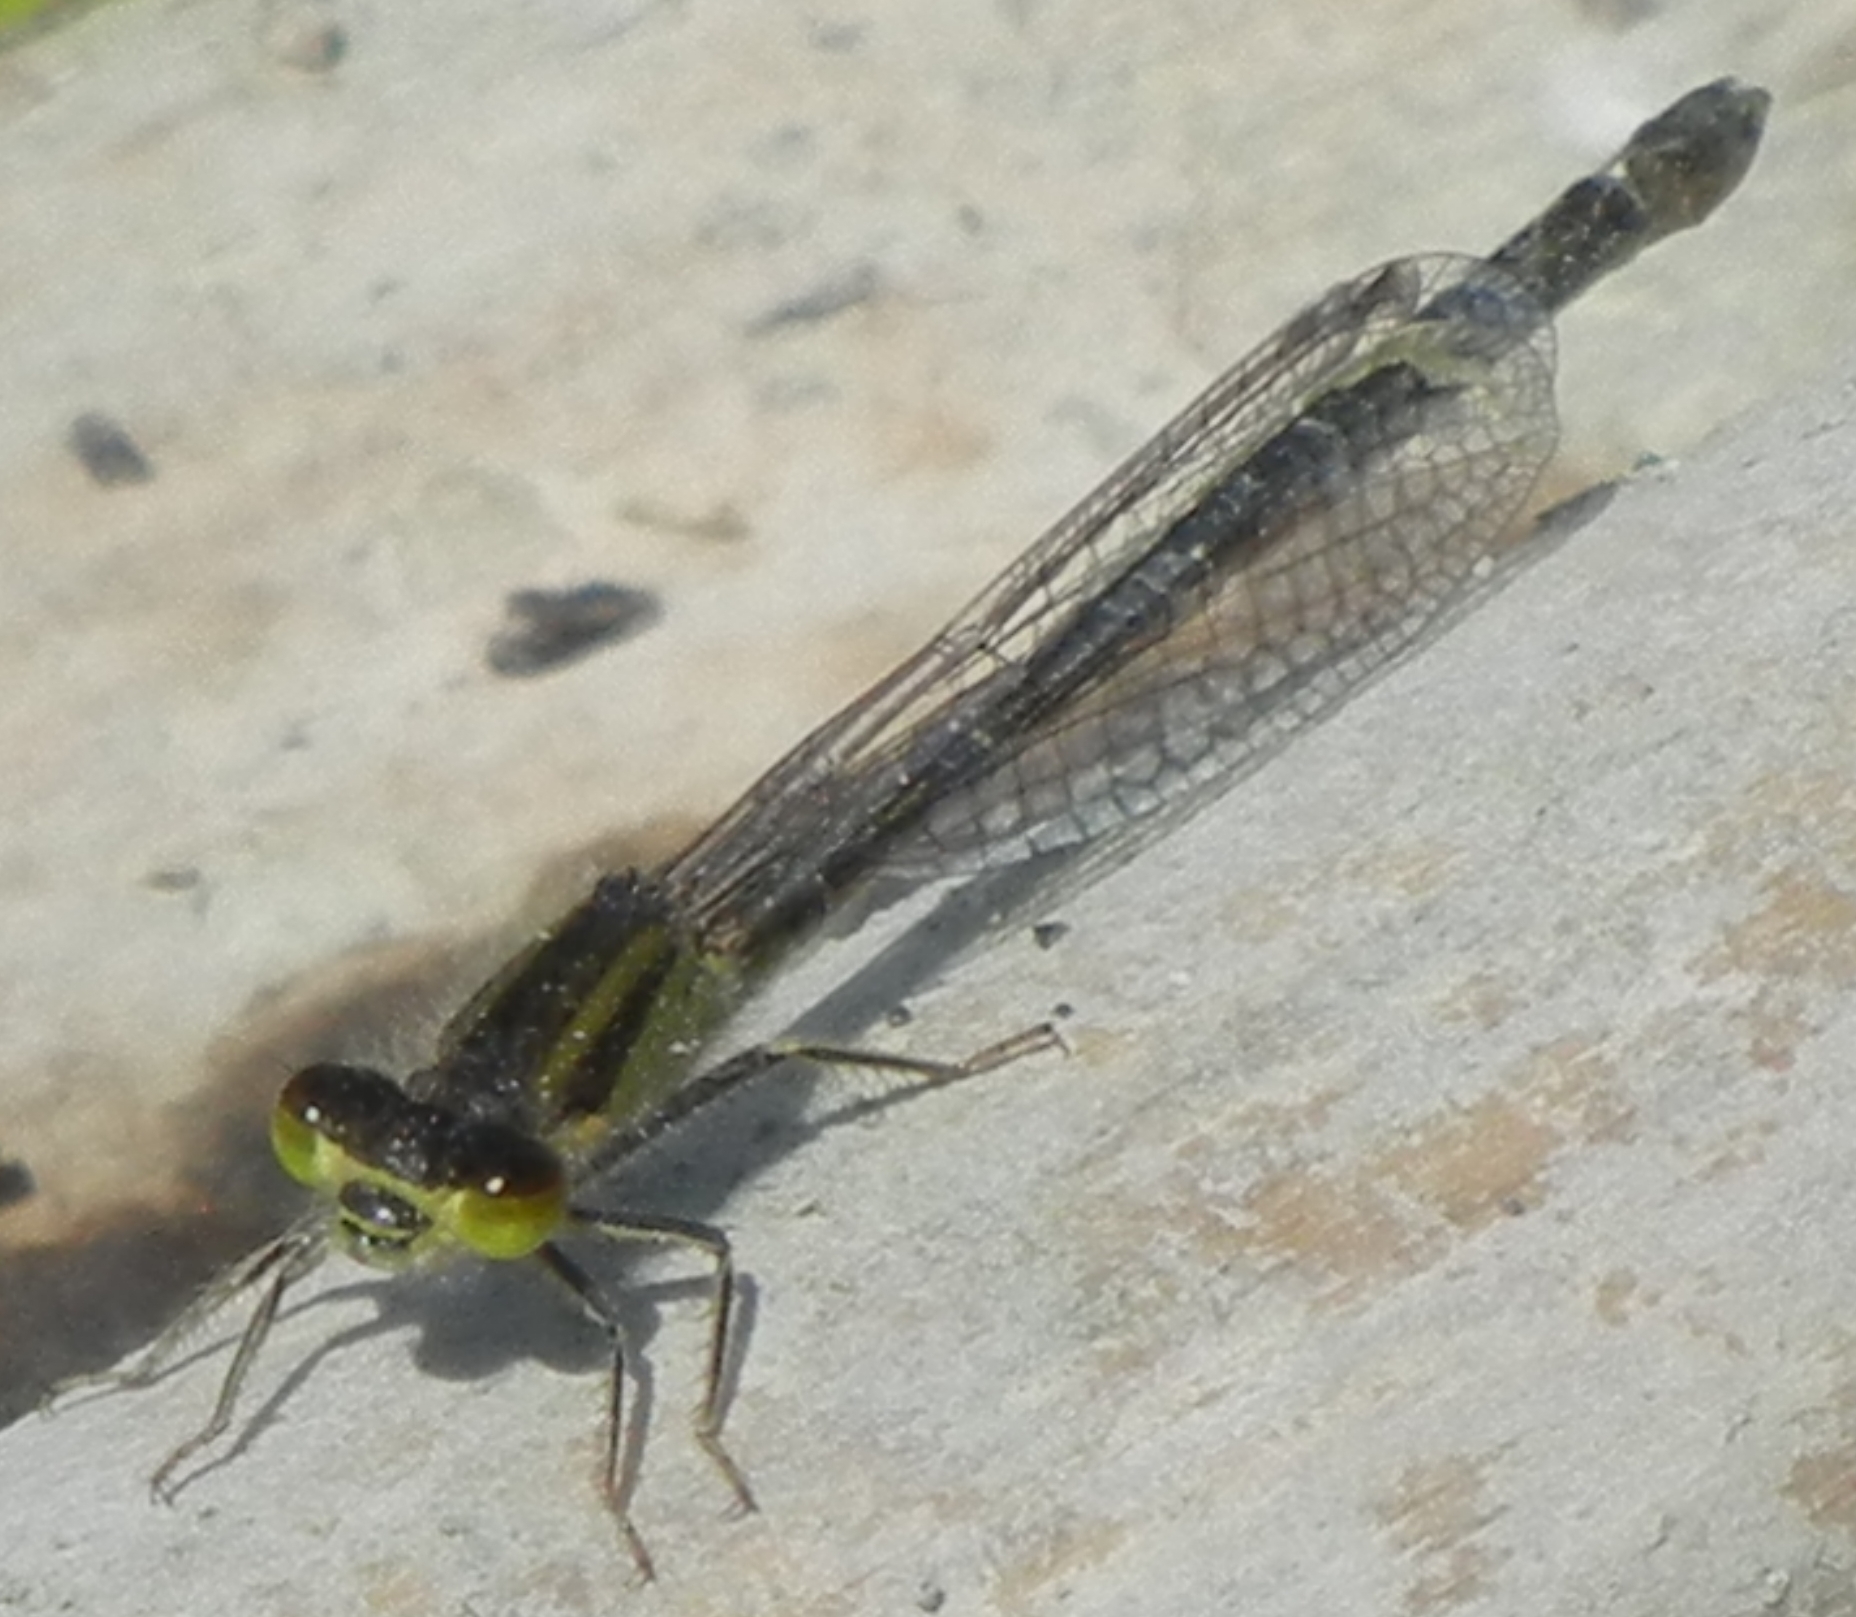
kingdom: Animalia
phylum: Arthropoda
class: Insecta
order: Odonata
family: Coenagrionidae
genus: Ischnura
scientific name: Ischnura graellsii
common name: Iberian bluetail
